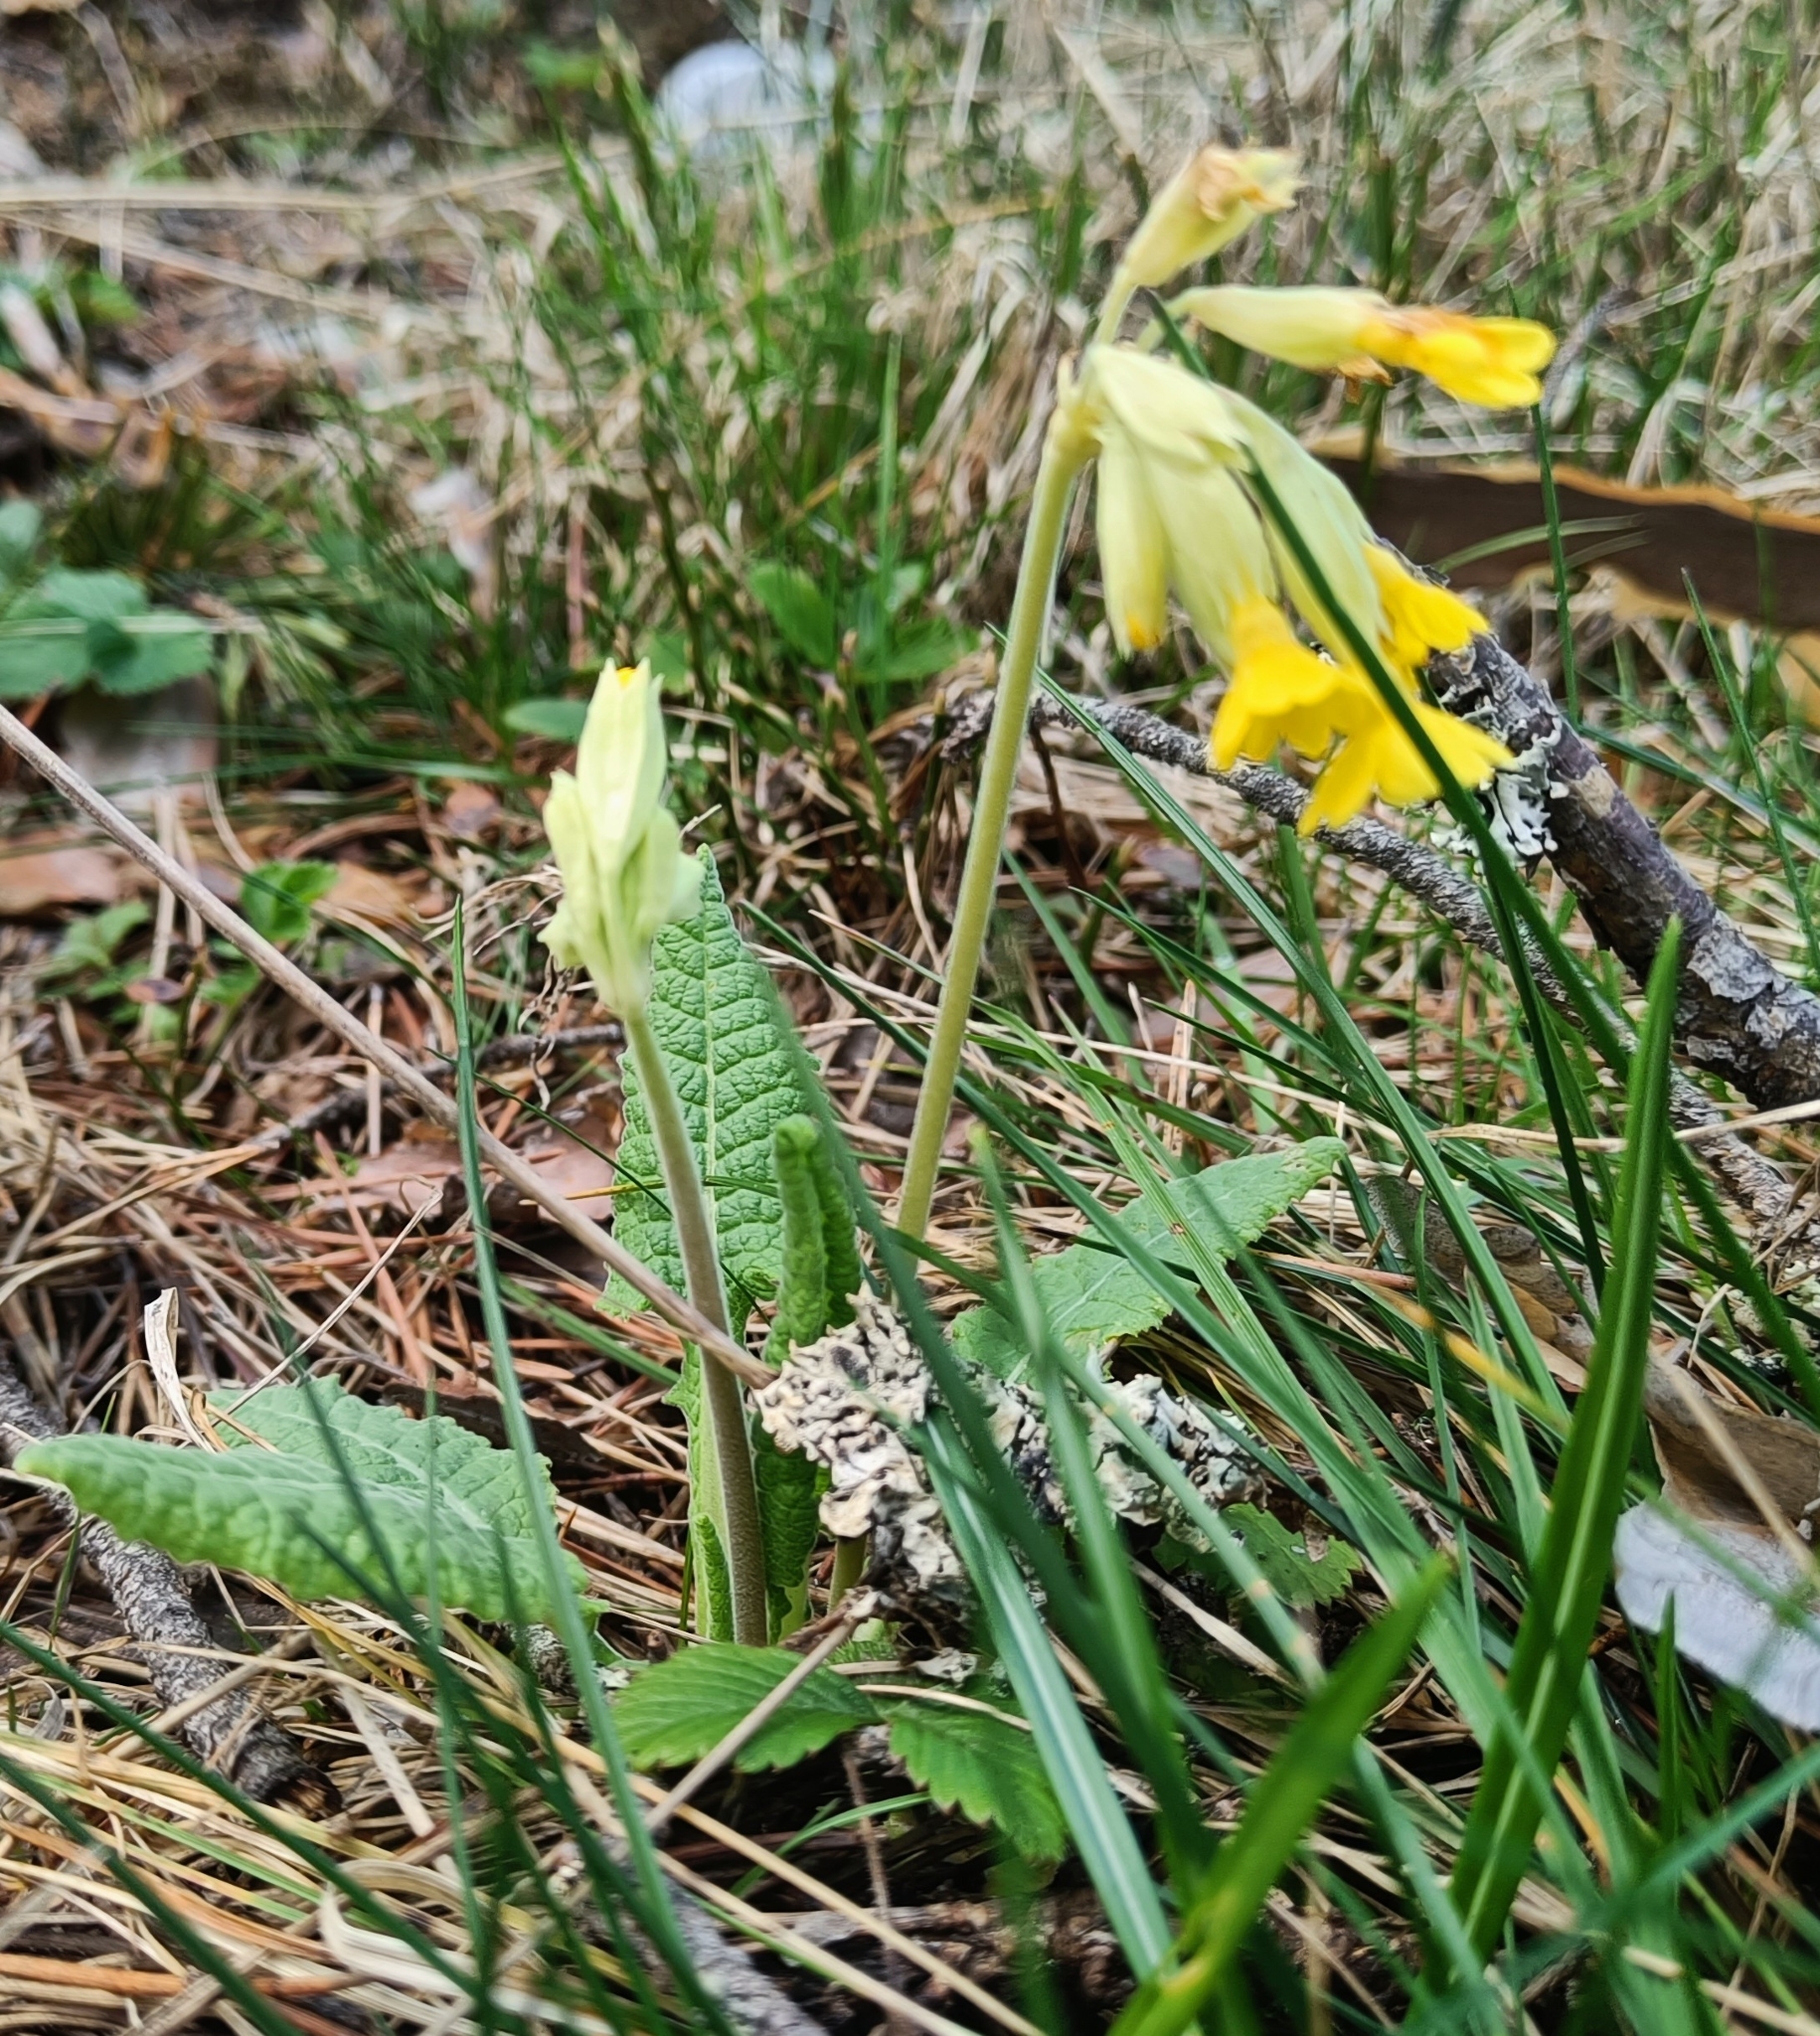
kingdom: Plantae
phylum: Tracheophyta
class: Magnoliopsida
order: Ericales
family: Primulaceae
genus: Primula
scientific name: Primula veris
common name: Cowslip
